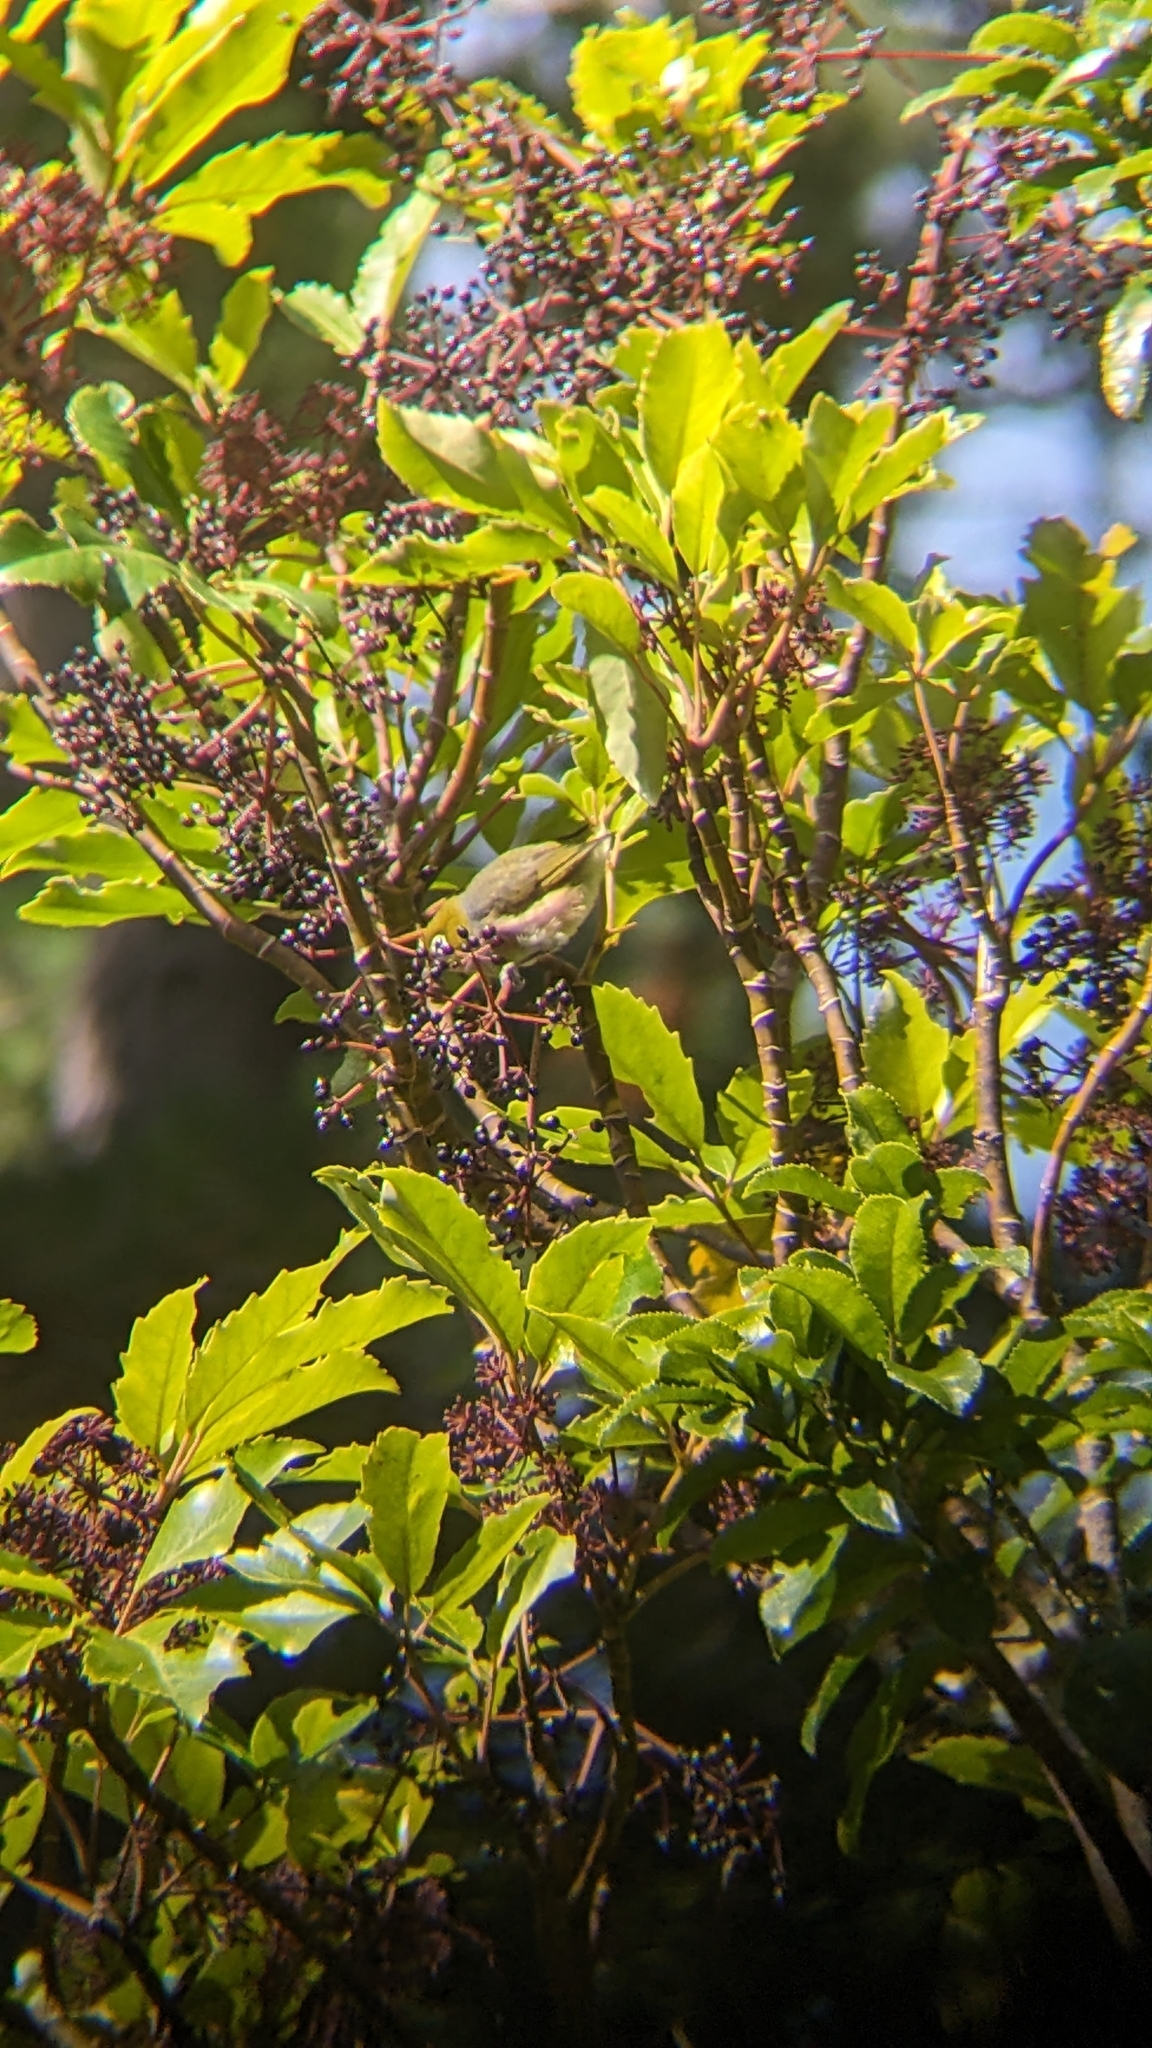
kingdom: Animalia
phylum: Chordata
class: Aves
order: Passeriformes
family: Zosteropidae
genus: Zosterops
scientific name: Zosterops lateralis
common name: Silvereye
